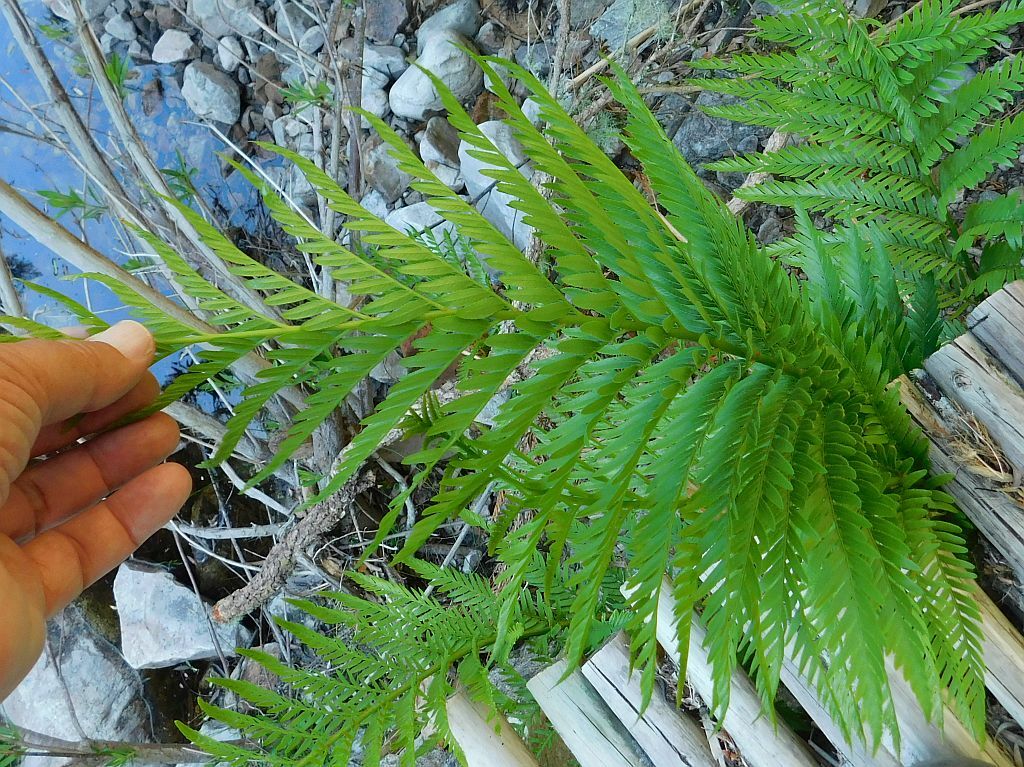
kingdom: Plantae
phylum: Tracheophyta
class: Polypodiopsida
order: Osmundales
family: Osmundaceae
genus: Todea
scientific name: Todea barbara
